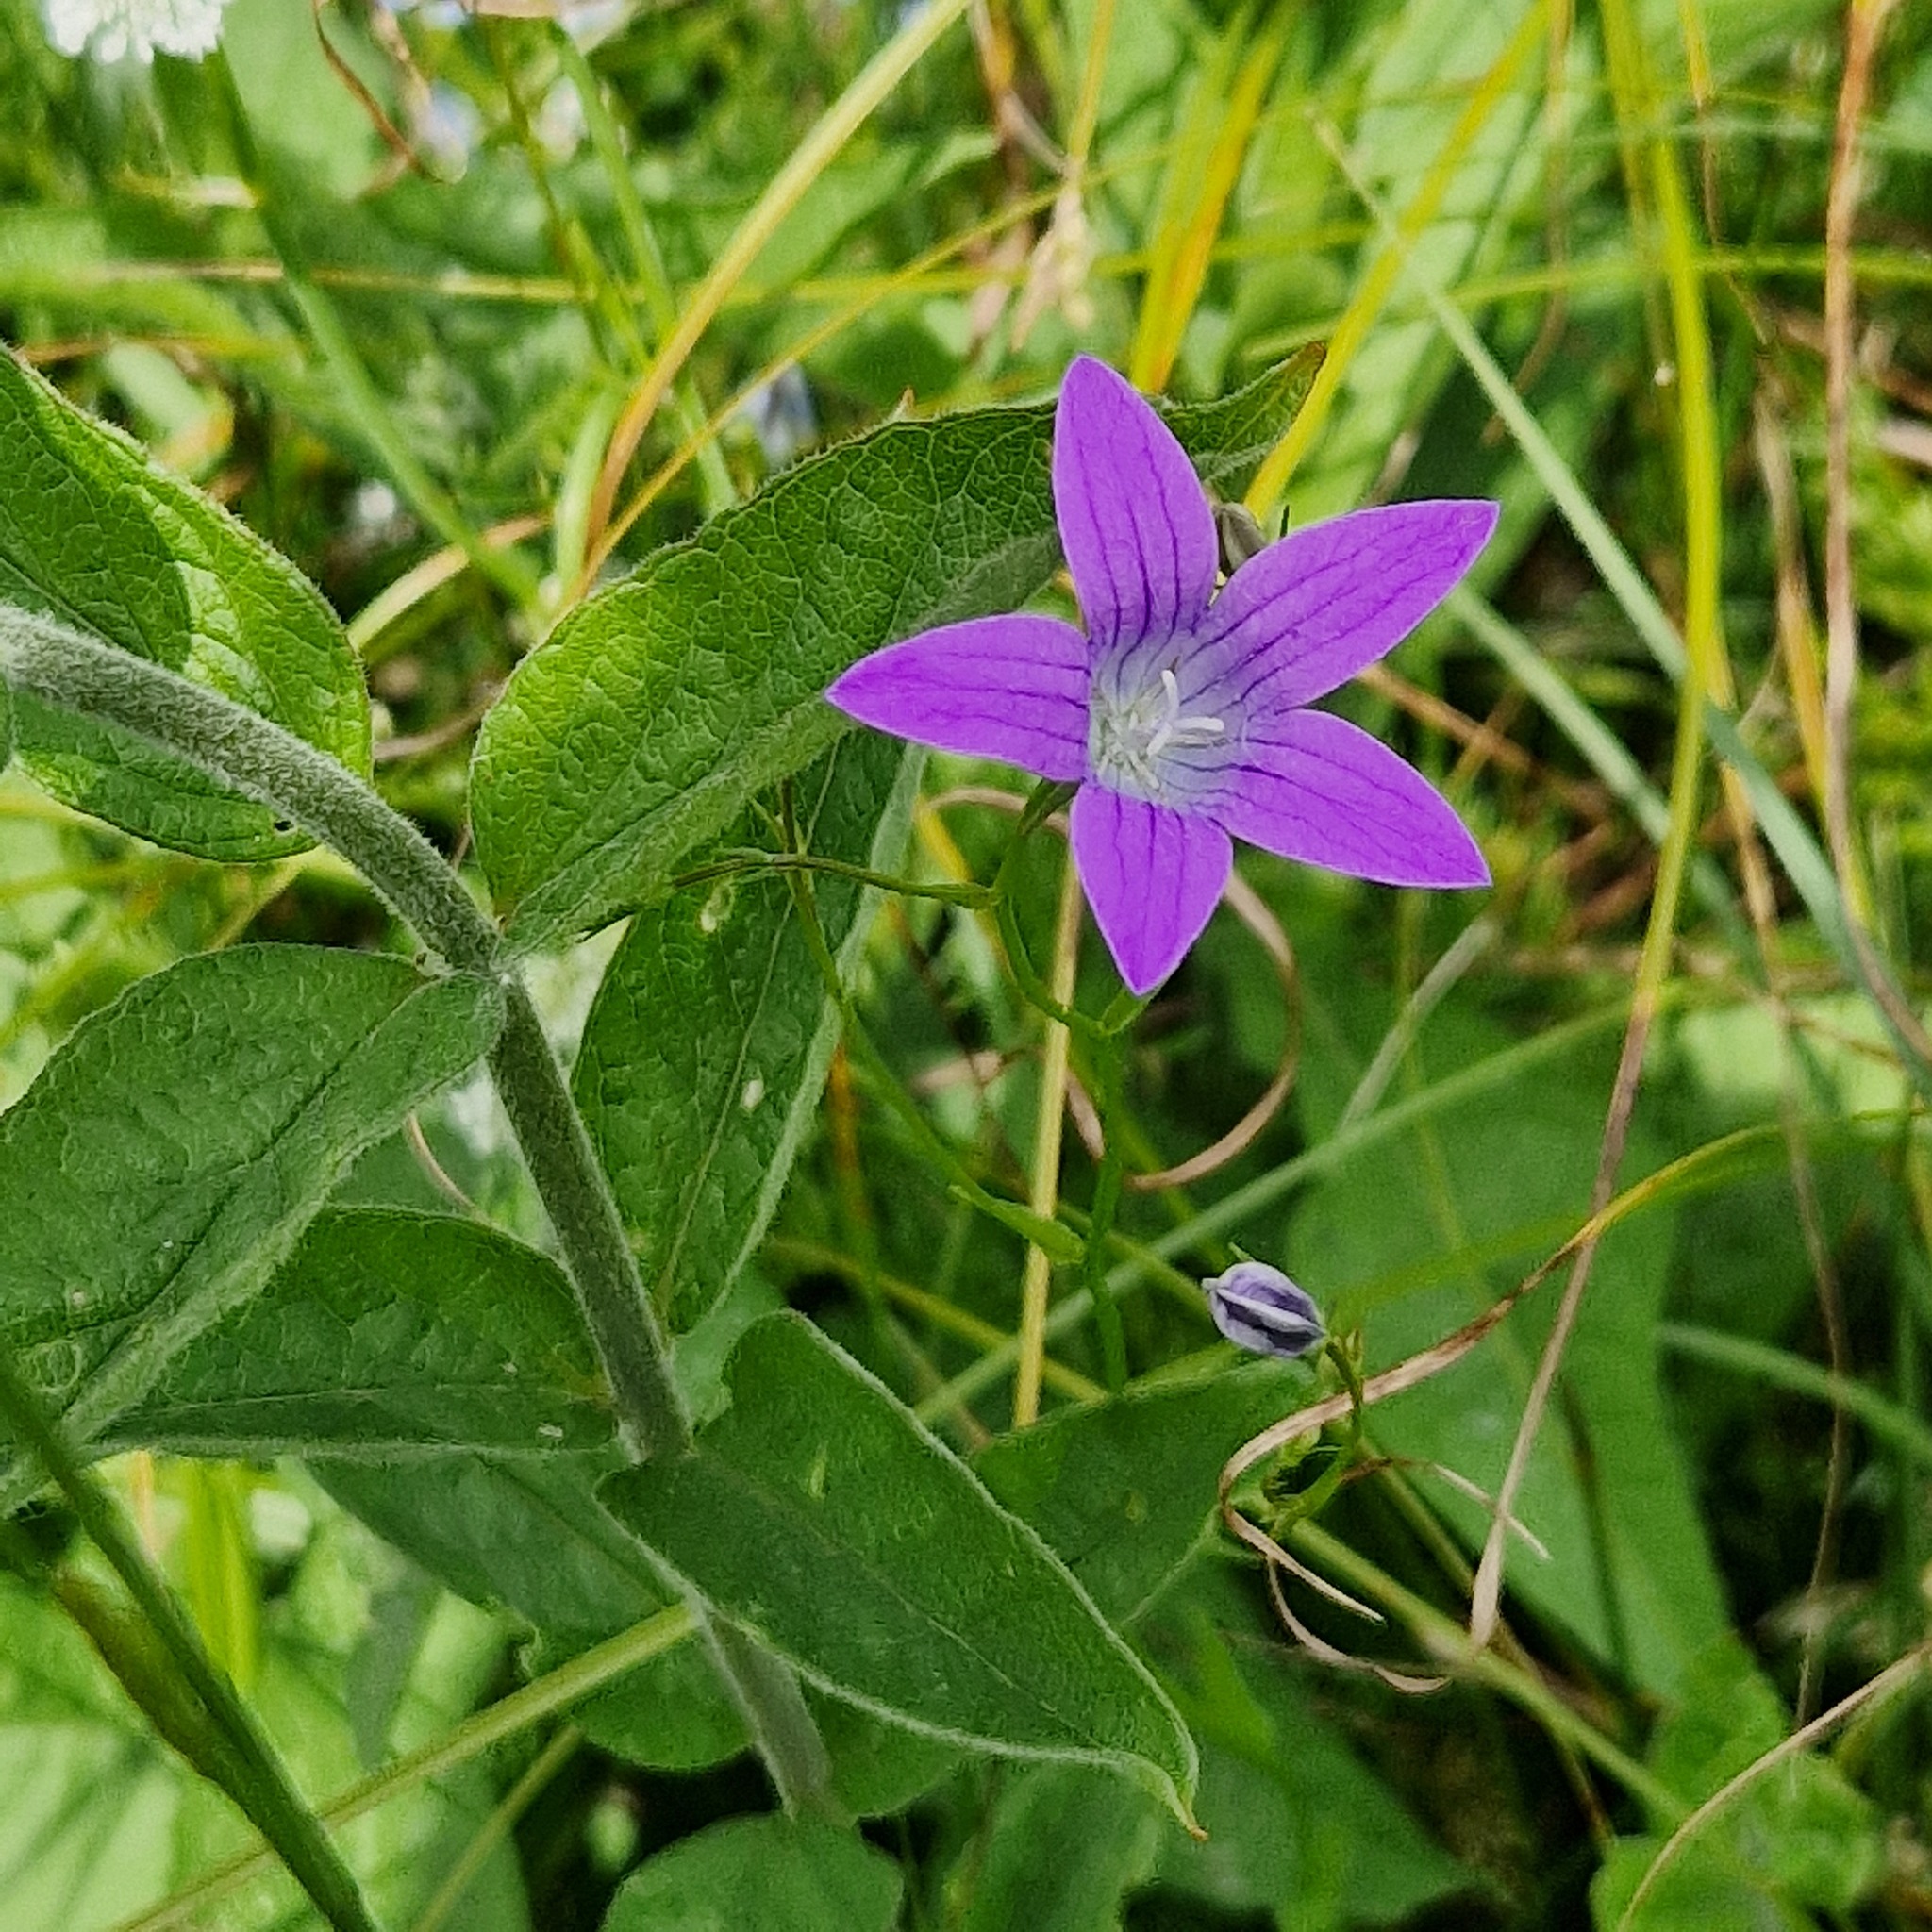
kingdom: Plantae
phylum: Tracheophyta
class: Magnoliopsida
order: Asterales
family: Campanulaceae
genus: Campanula
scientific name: Campanula patula
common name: Spreading bellflower
